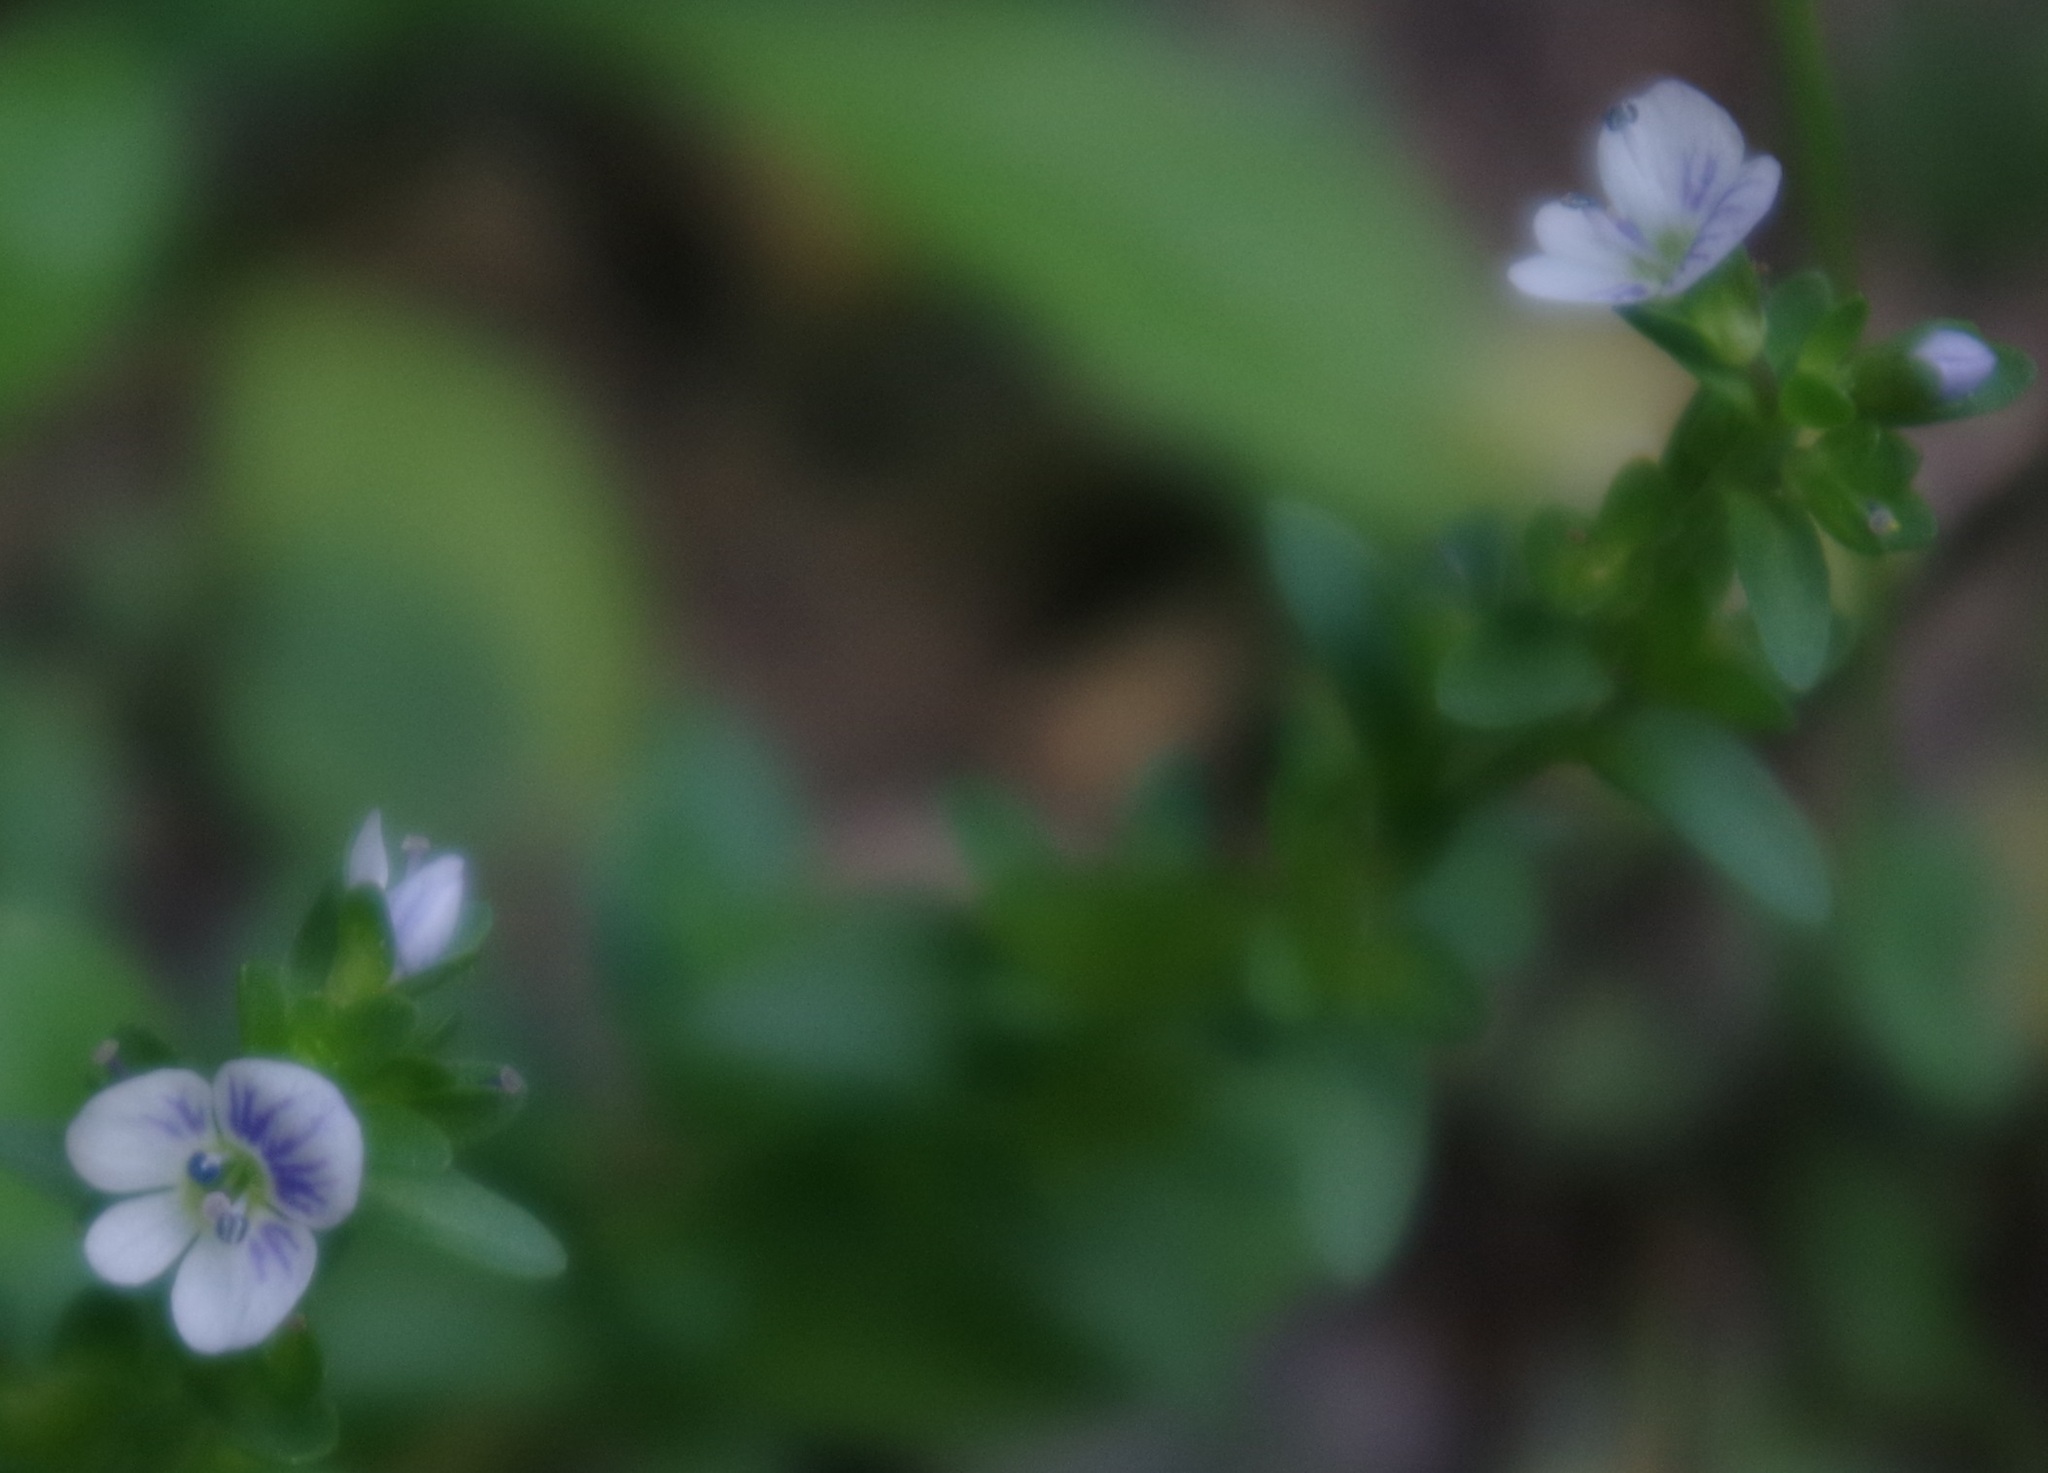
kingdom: Plantae
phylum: Tracheophyta
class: Magnoliopsida
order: Lamiales
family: Plantaginaceae
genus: Veronica
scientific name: Veronica serpyllifolia
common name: Thyme-leaved speedwell
